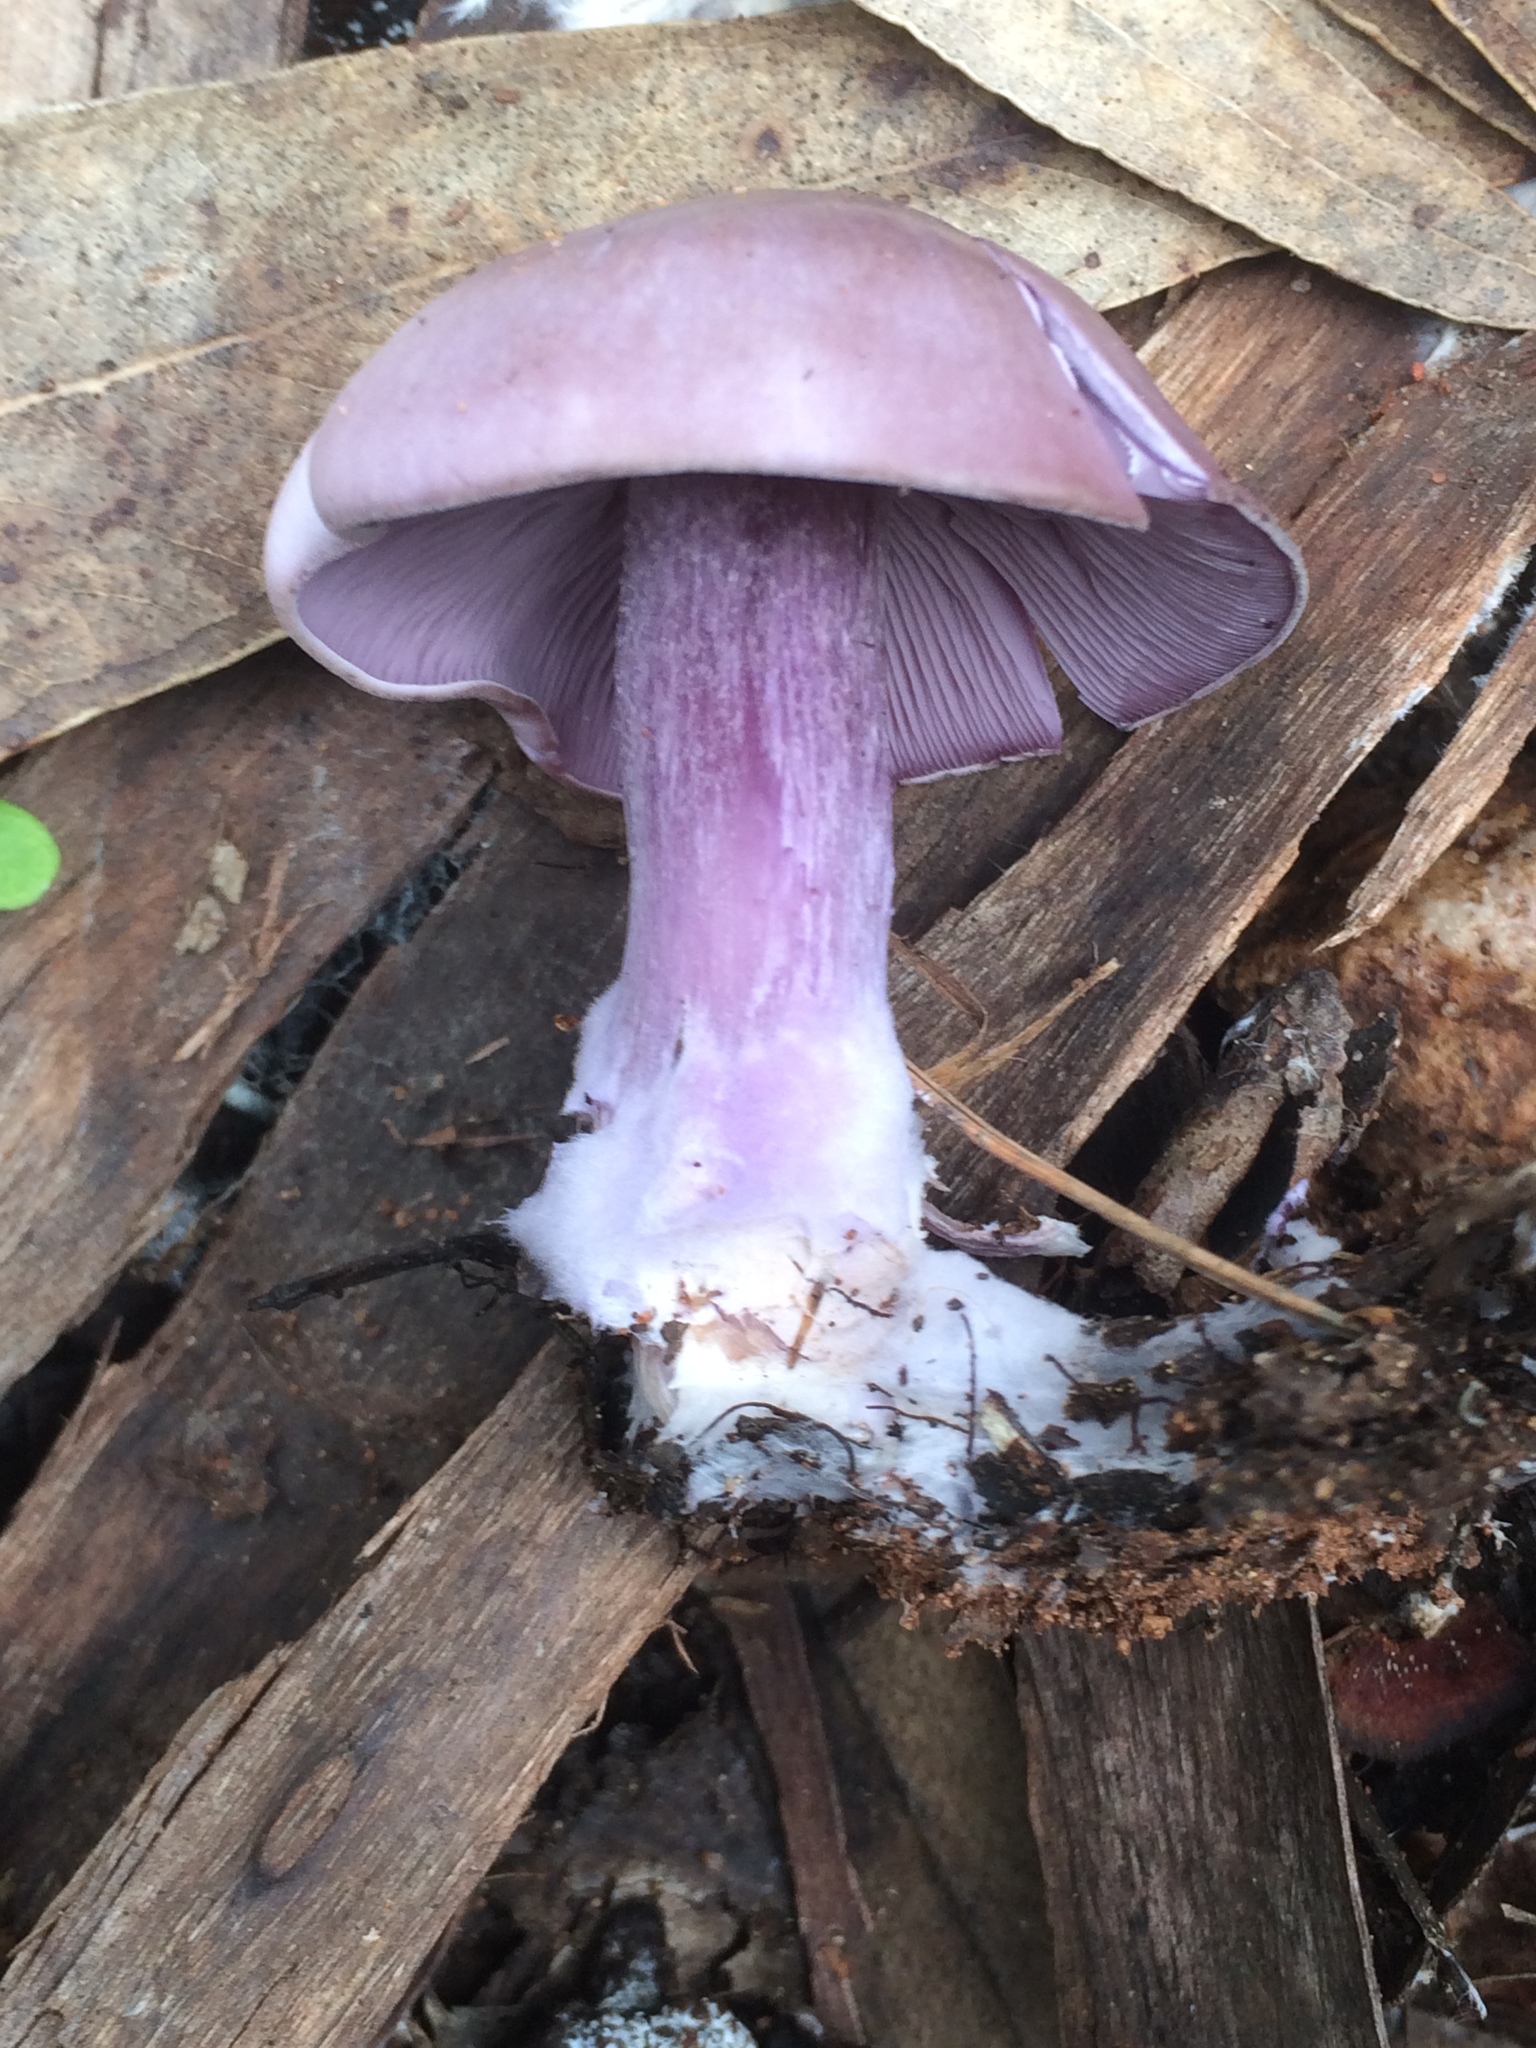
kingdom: Fungi
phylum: Basidiomycota
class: Agaricomycetes
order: Agaricales
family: Tricholomataceae
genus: Collybia
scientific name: Collybia
